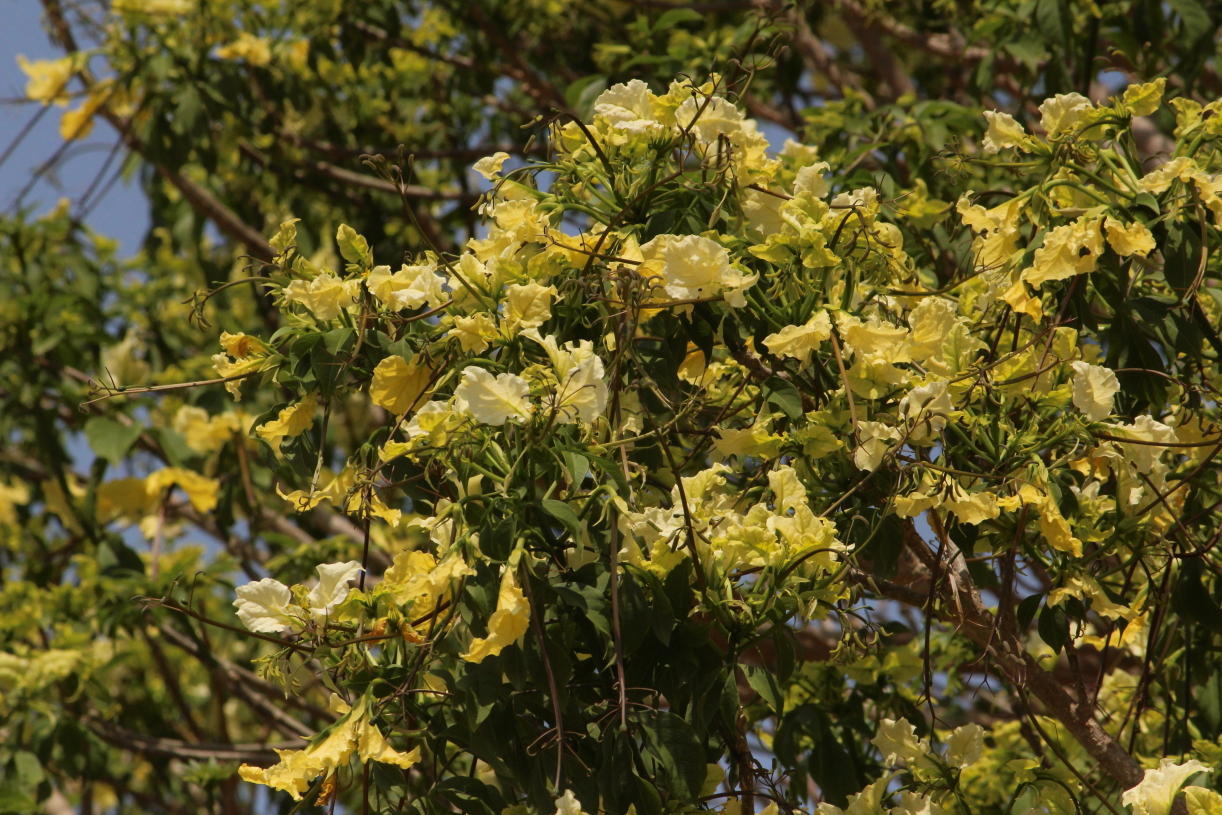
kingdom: Plantae
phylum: Tracheophyta
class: Magnoliopsida
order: Brassicales
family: Capparaceae
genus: Cladostemon
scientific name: Cladostemon kirkii
